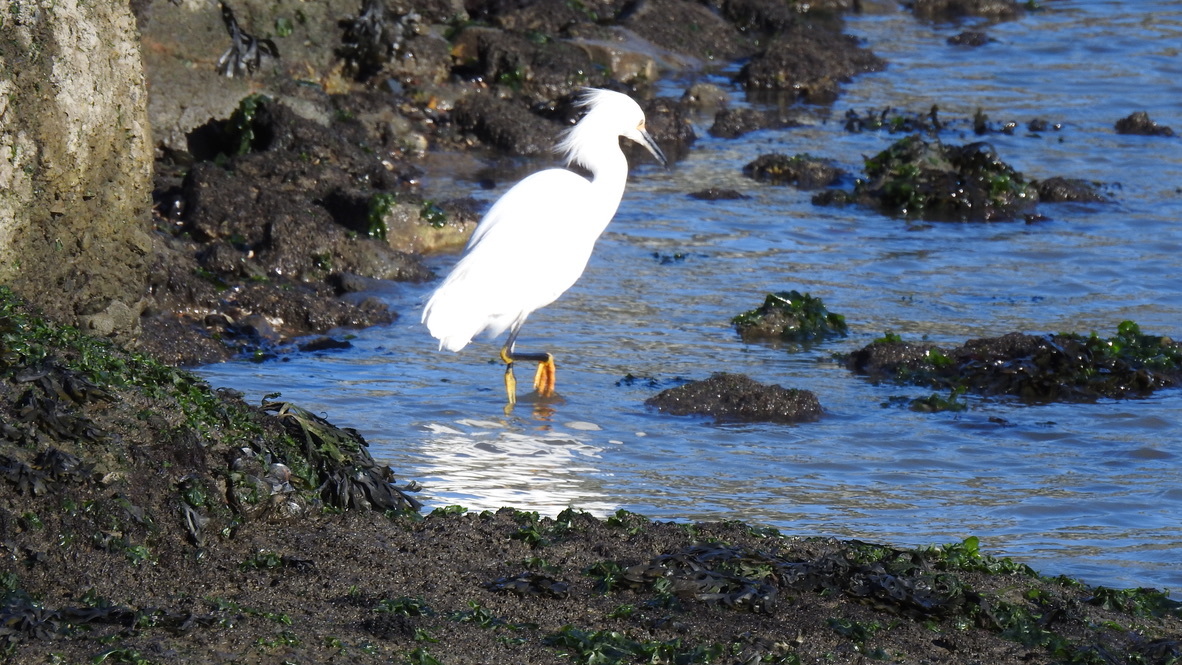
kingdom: Animalia
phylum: Chordata
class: Aves
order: Pelecaniformes
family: Ardeidae
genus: Egretta
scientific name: Egretta thula
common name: Snowy egret
